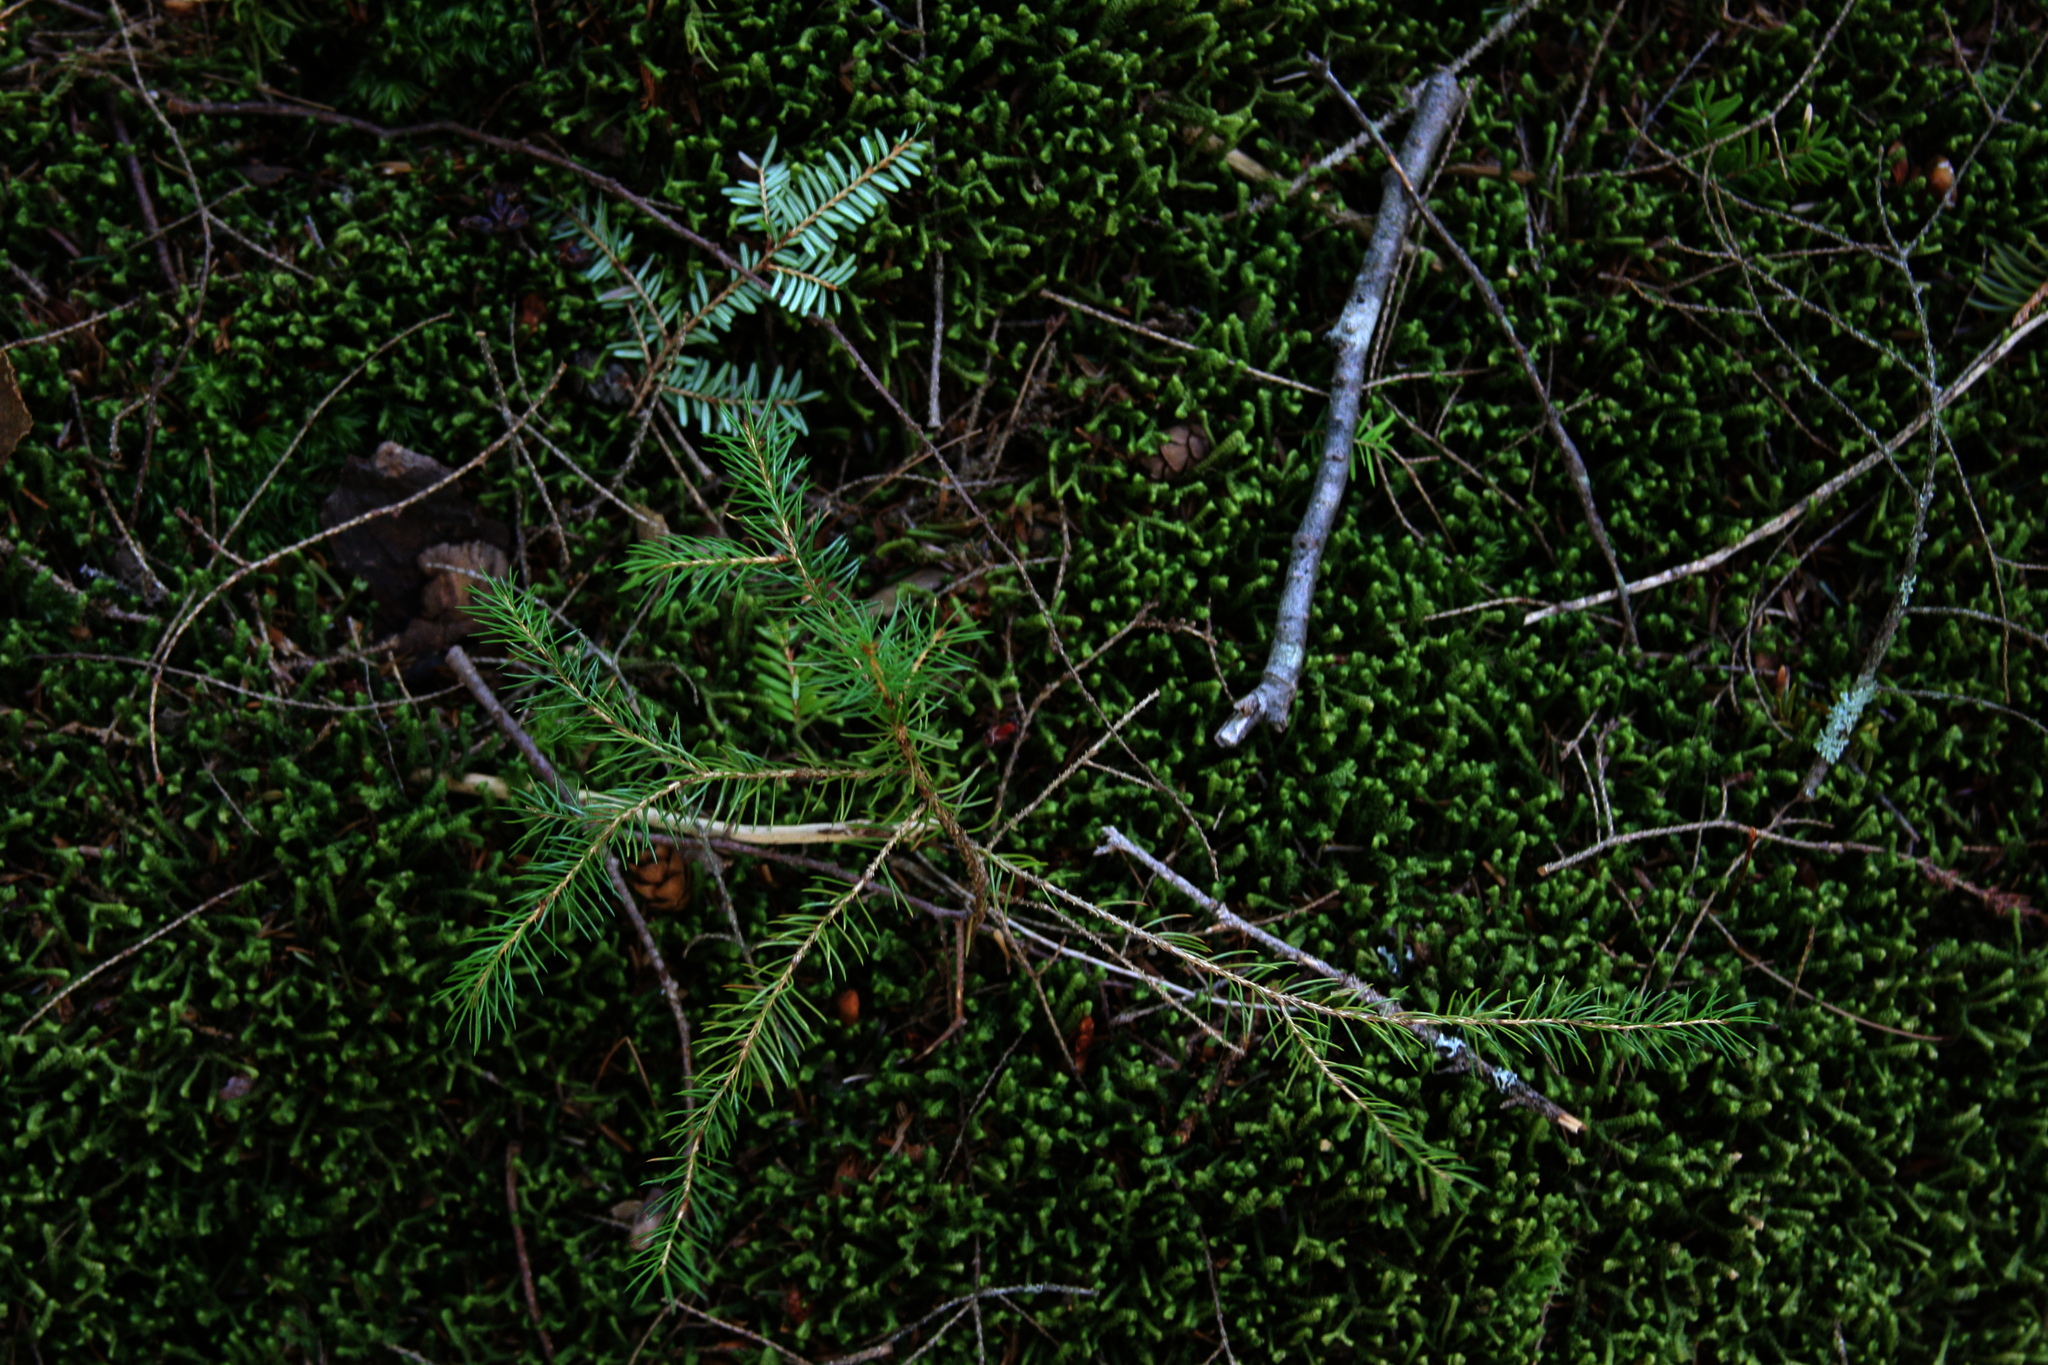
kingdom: Plantae
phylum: Tracheophyta
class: Pinopsida
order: Pinales
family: Pinaceae
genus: Picea
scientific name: Picea rubens
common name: Red spruce
